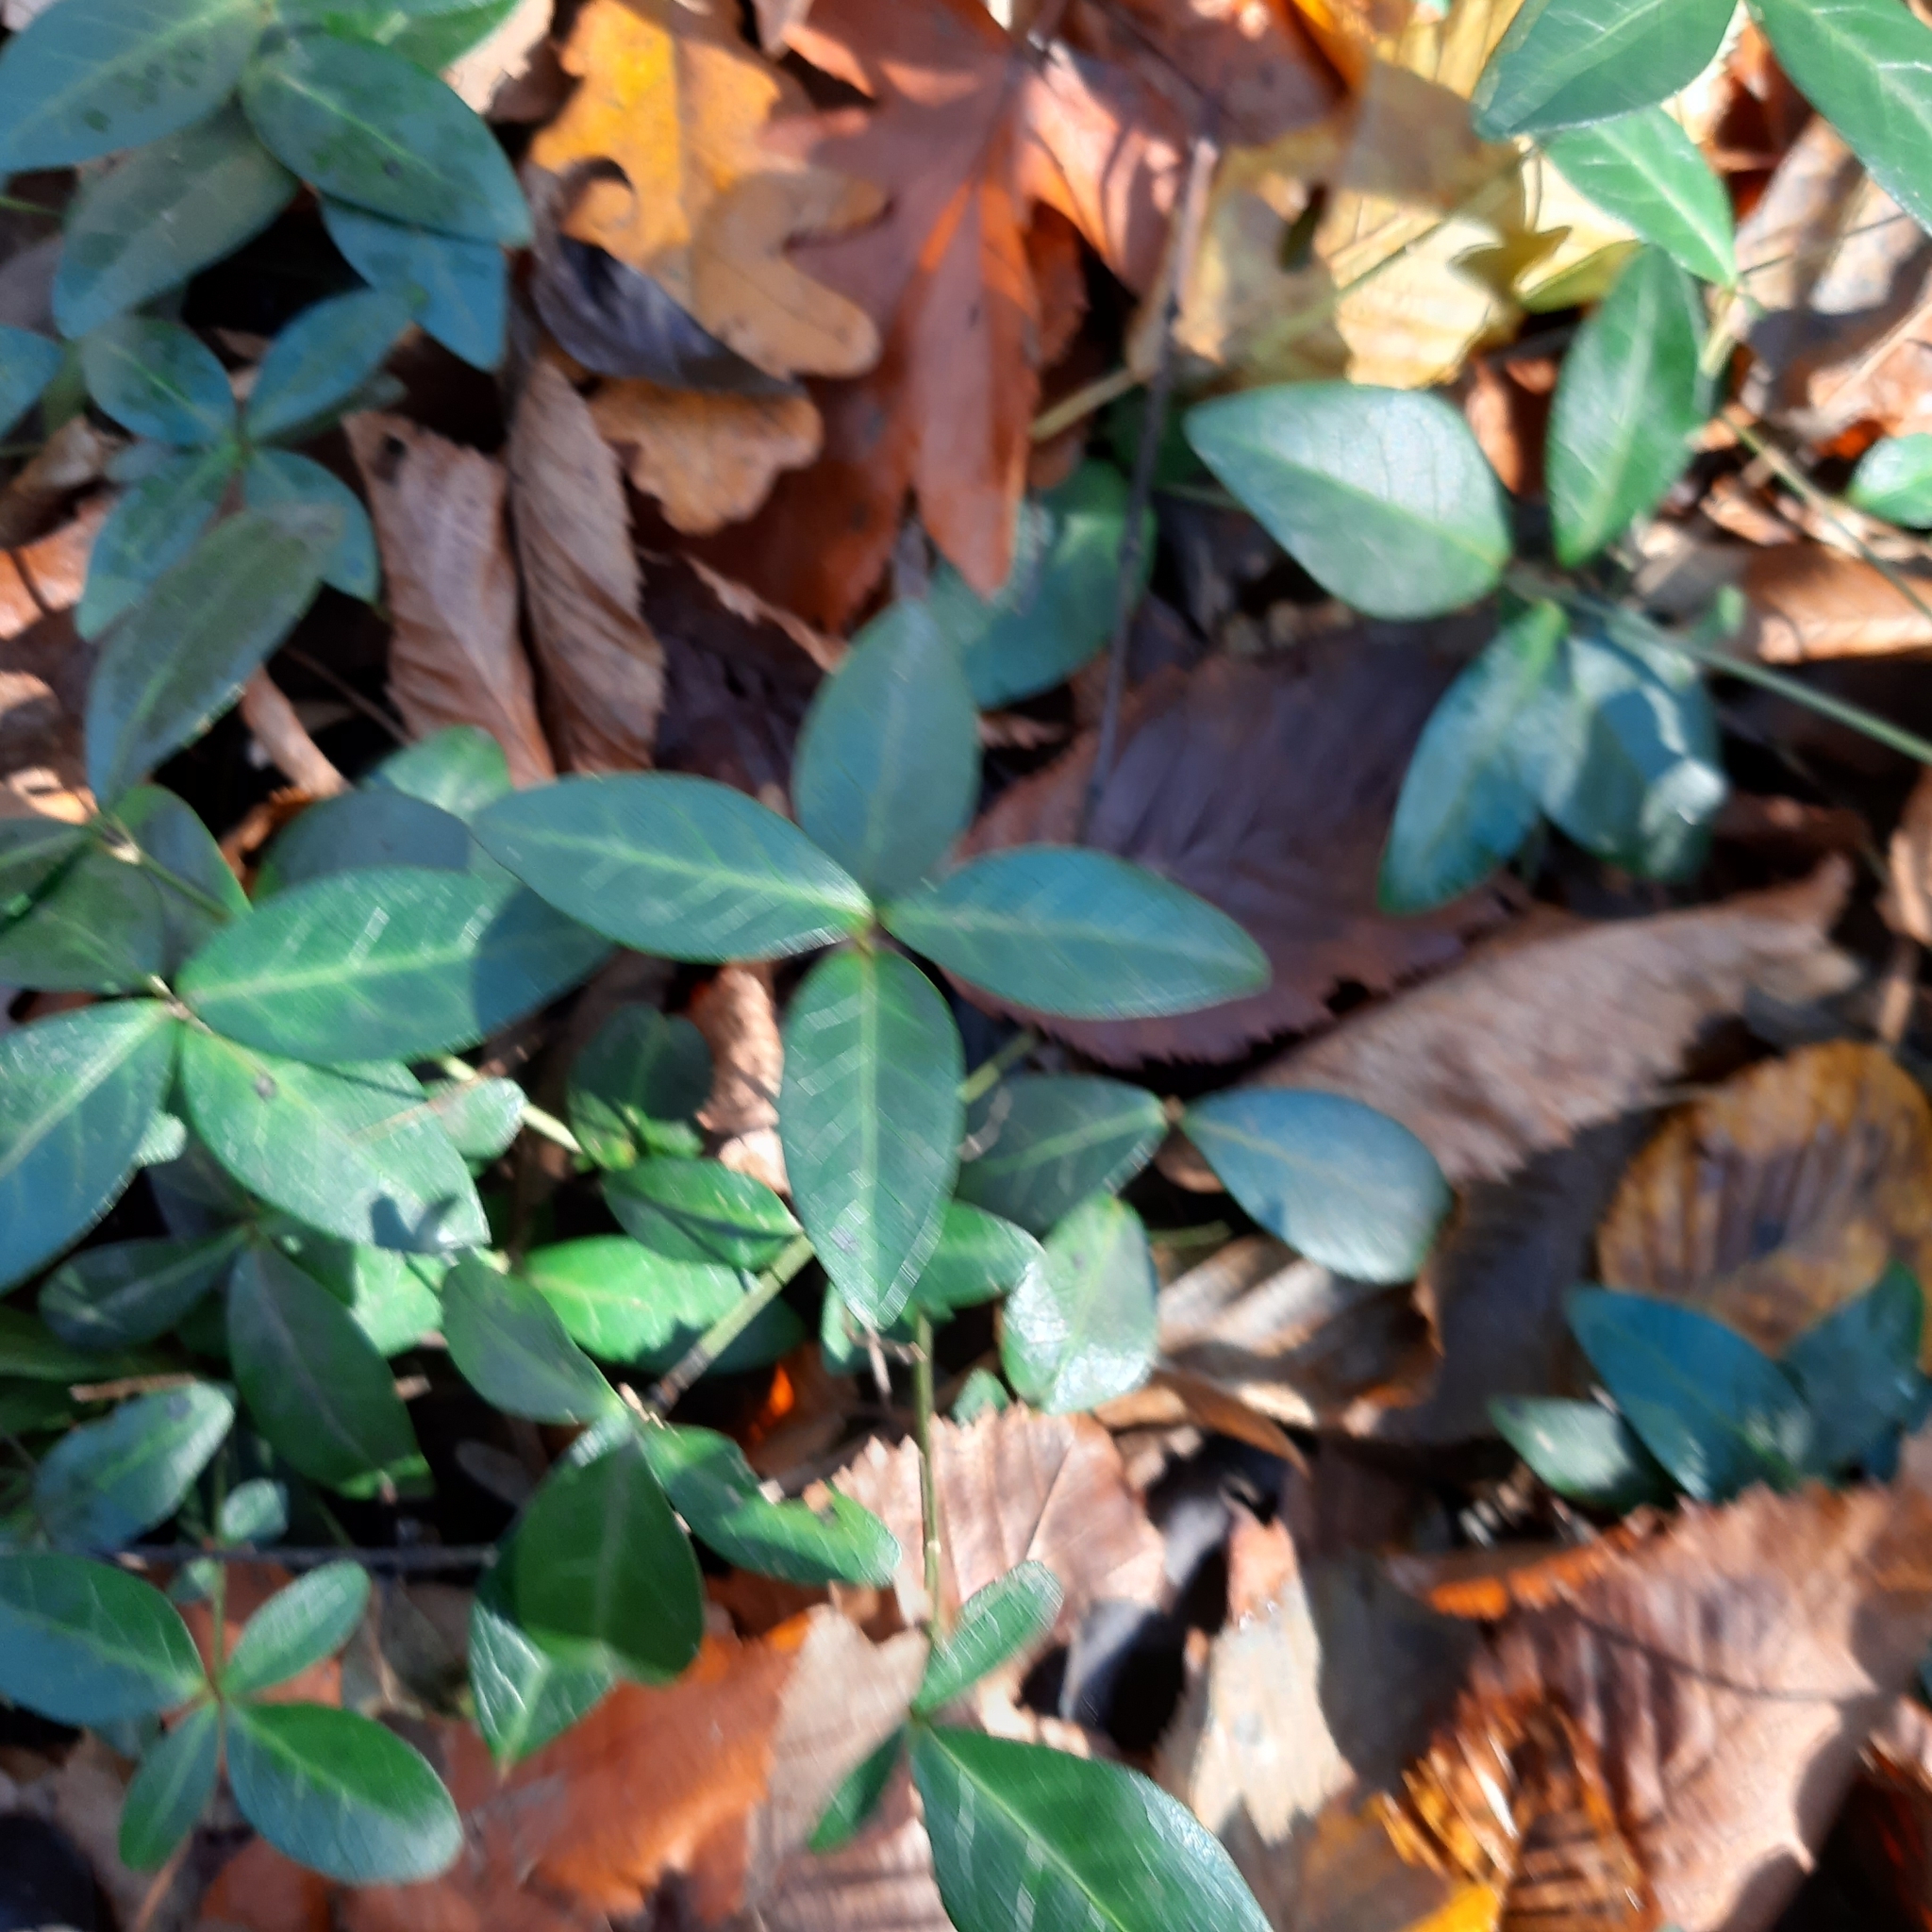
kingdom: Plantae
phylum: Tracheophyta
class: Magnoliopsida
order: Gentianales
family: Apocynaceae
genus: Vinca
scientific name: Vinca minor
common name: Lesser periwinkle
